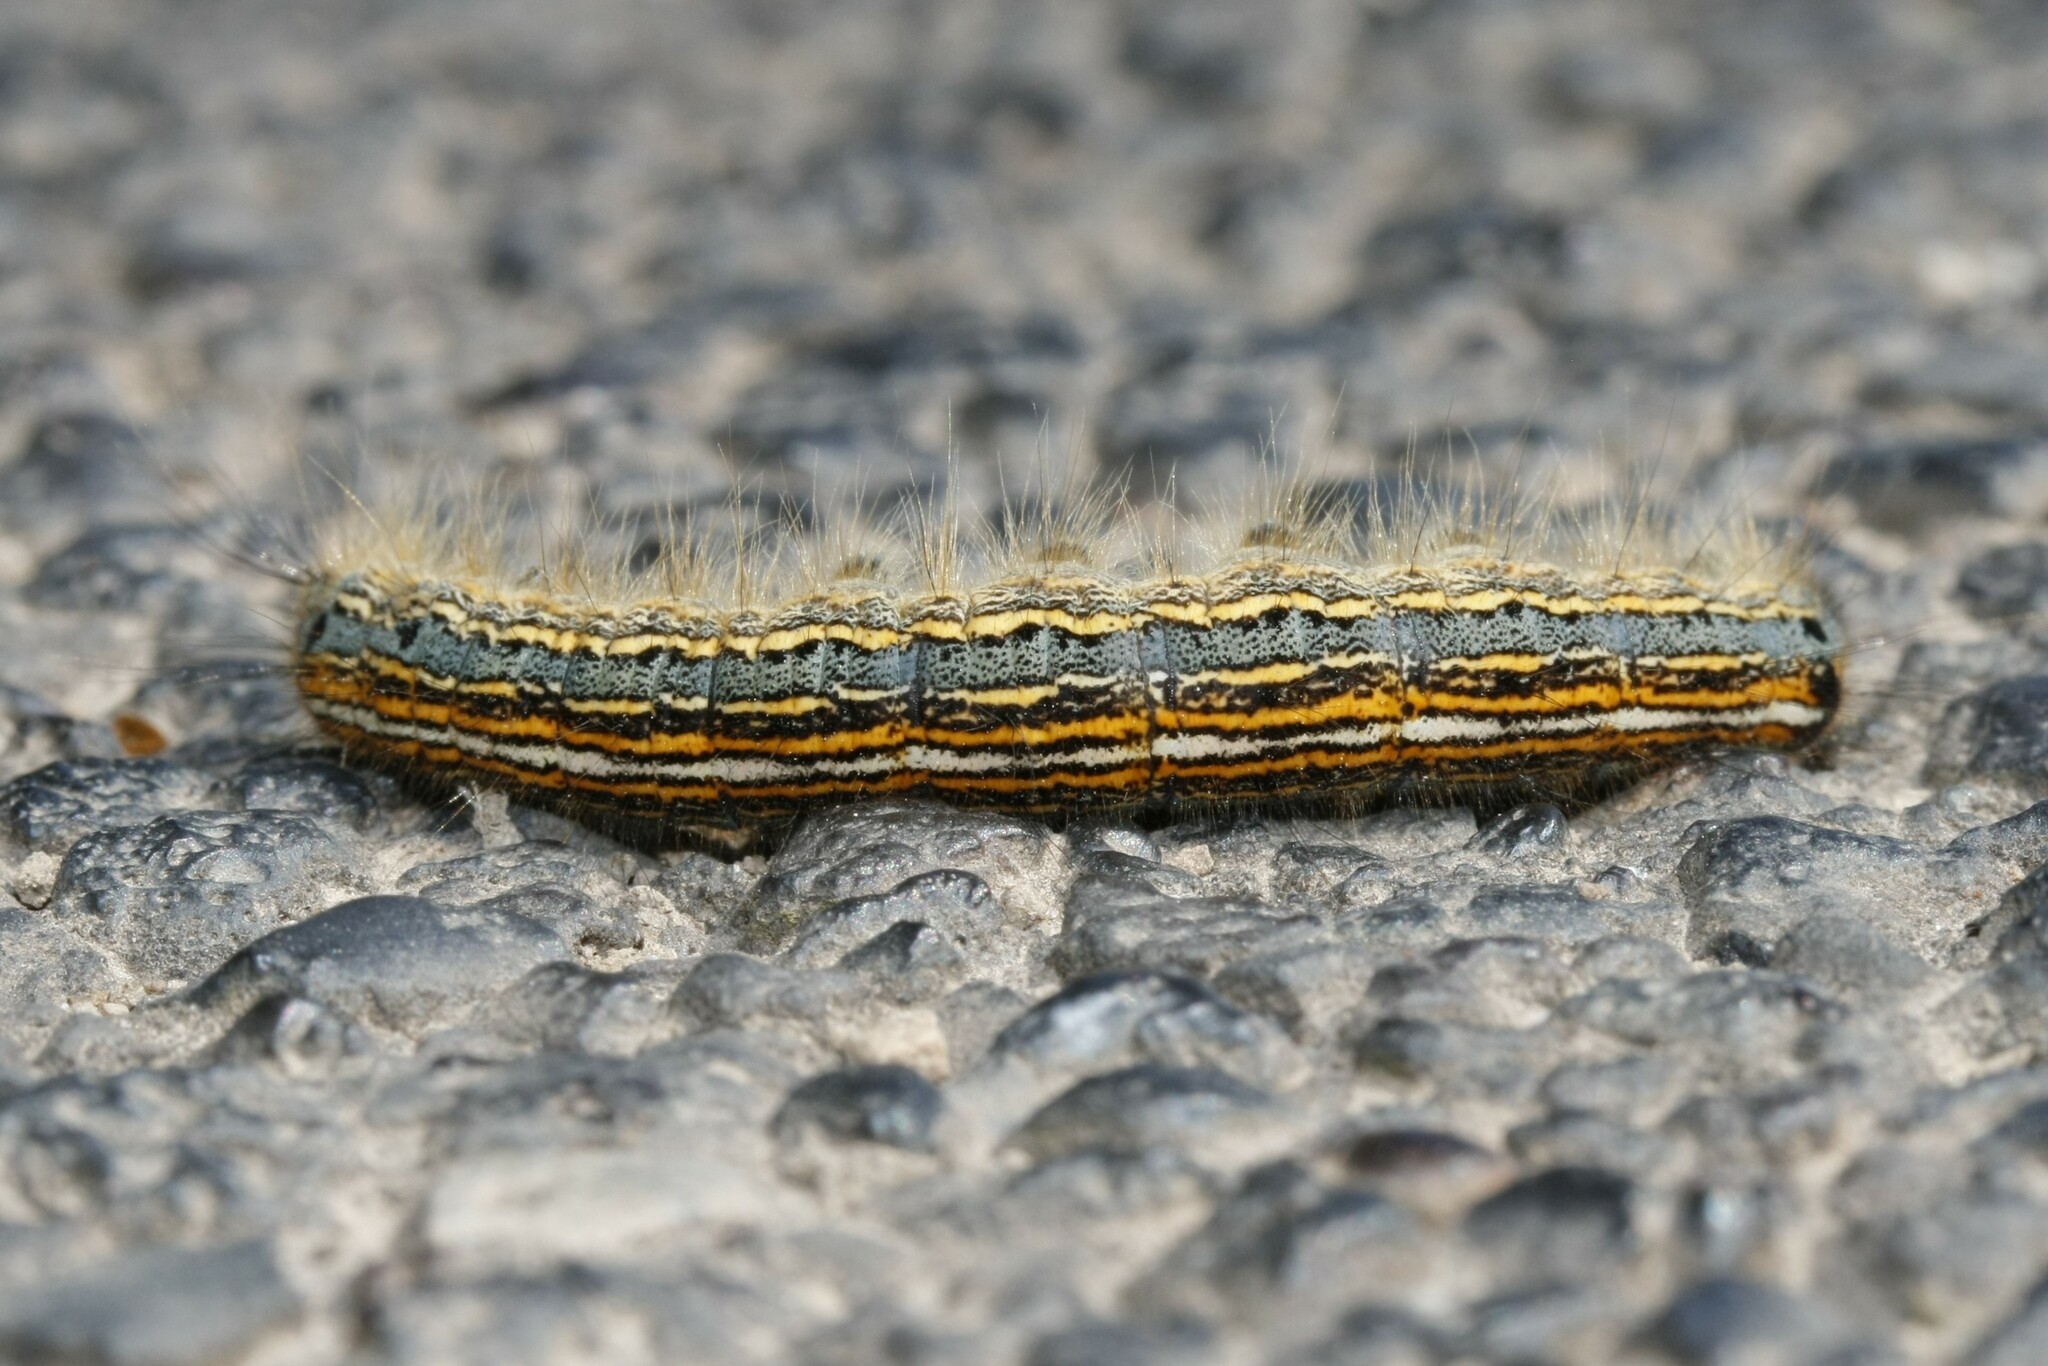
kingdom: Animalia
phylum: Arthropoda
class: Insecta
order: Lepidoptera
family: Lasiocampidae
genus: Malacosoma
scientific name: Malacosoma neustria
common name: The lackey
